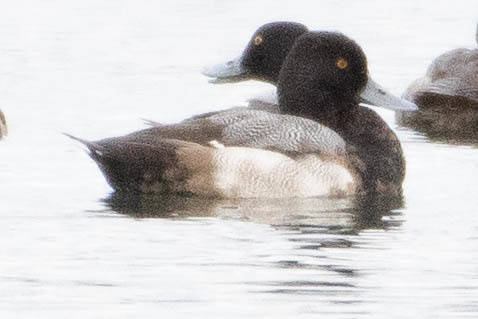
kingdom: Animalia
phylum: Chordata
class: Aves
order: Anseriformes
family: Anatidae
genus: Aythya
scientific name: Aythya affinis
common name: Lesser scaup
